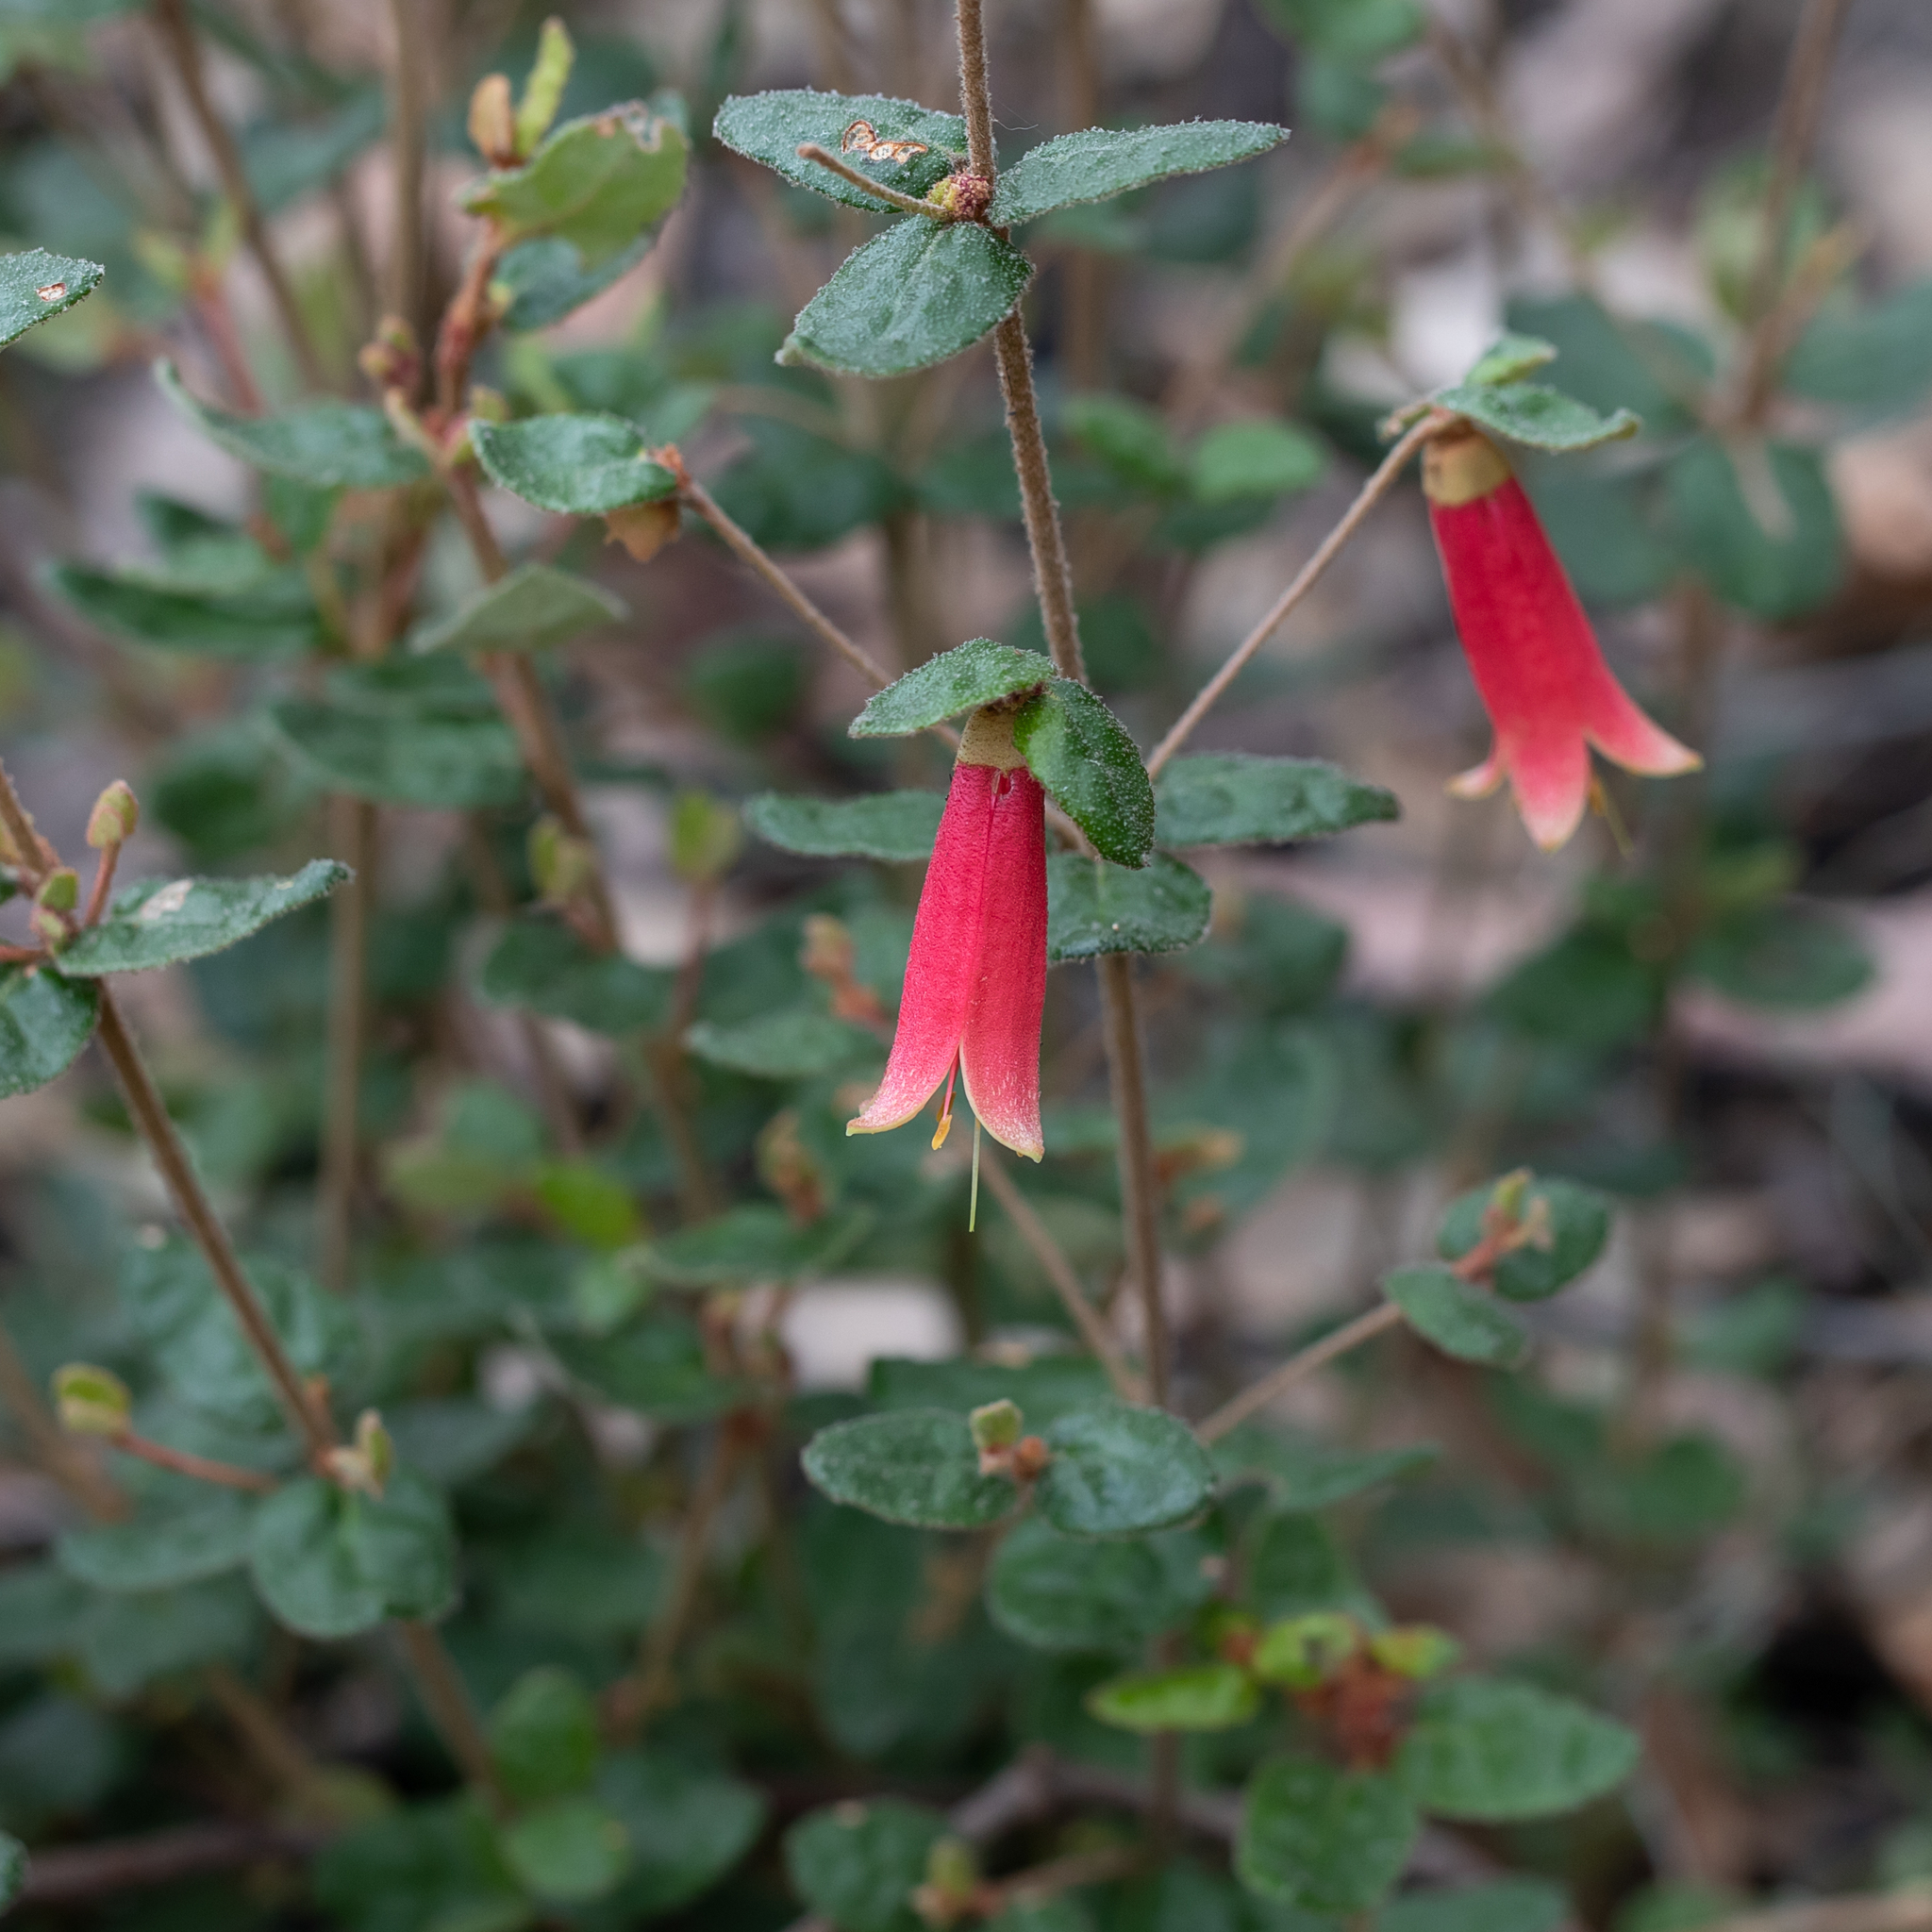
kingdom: Plantae
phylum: Tracheophyta
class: Magnoliopsida
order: Sapindales
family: Rutaceae
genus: Correa
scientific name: Correa reflexa
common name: Common correa
